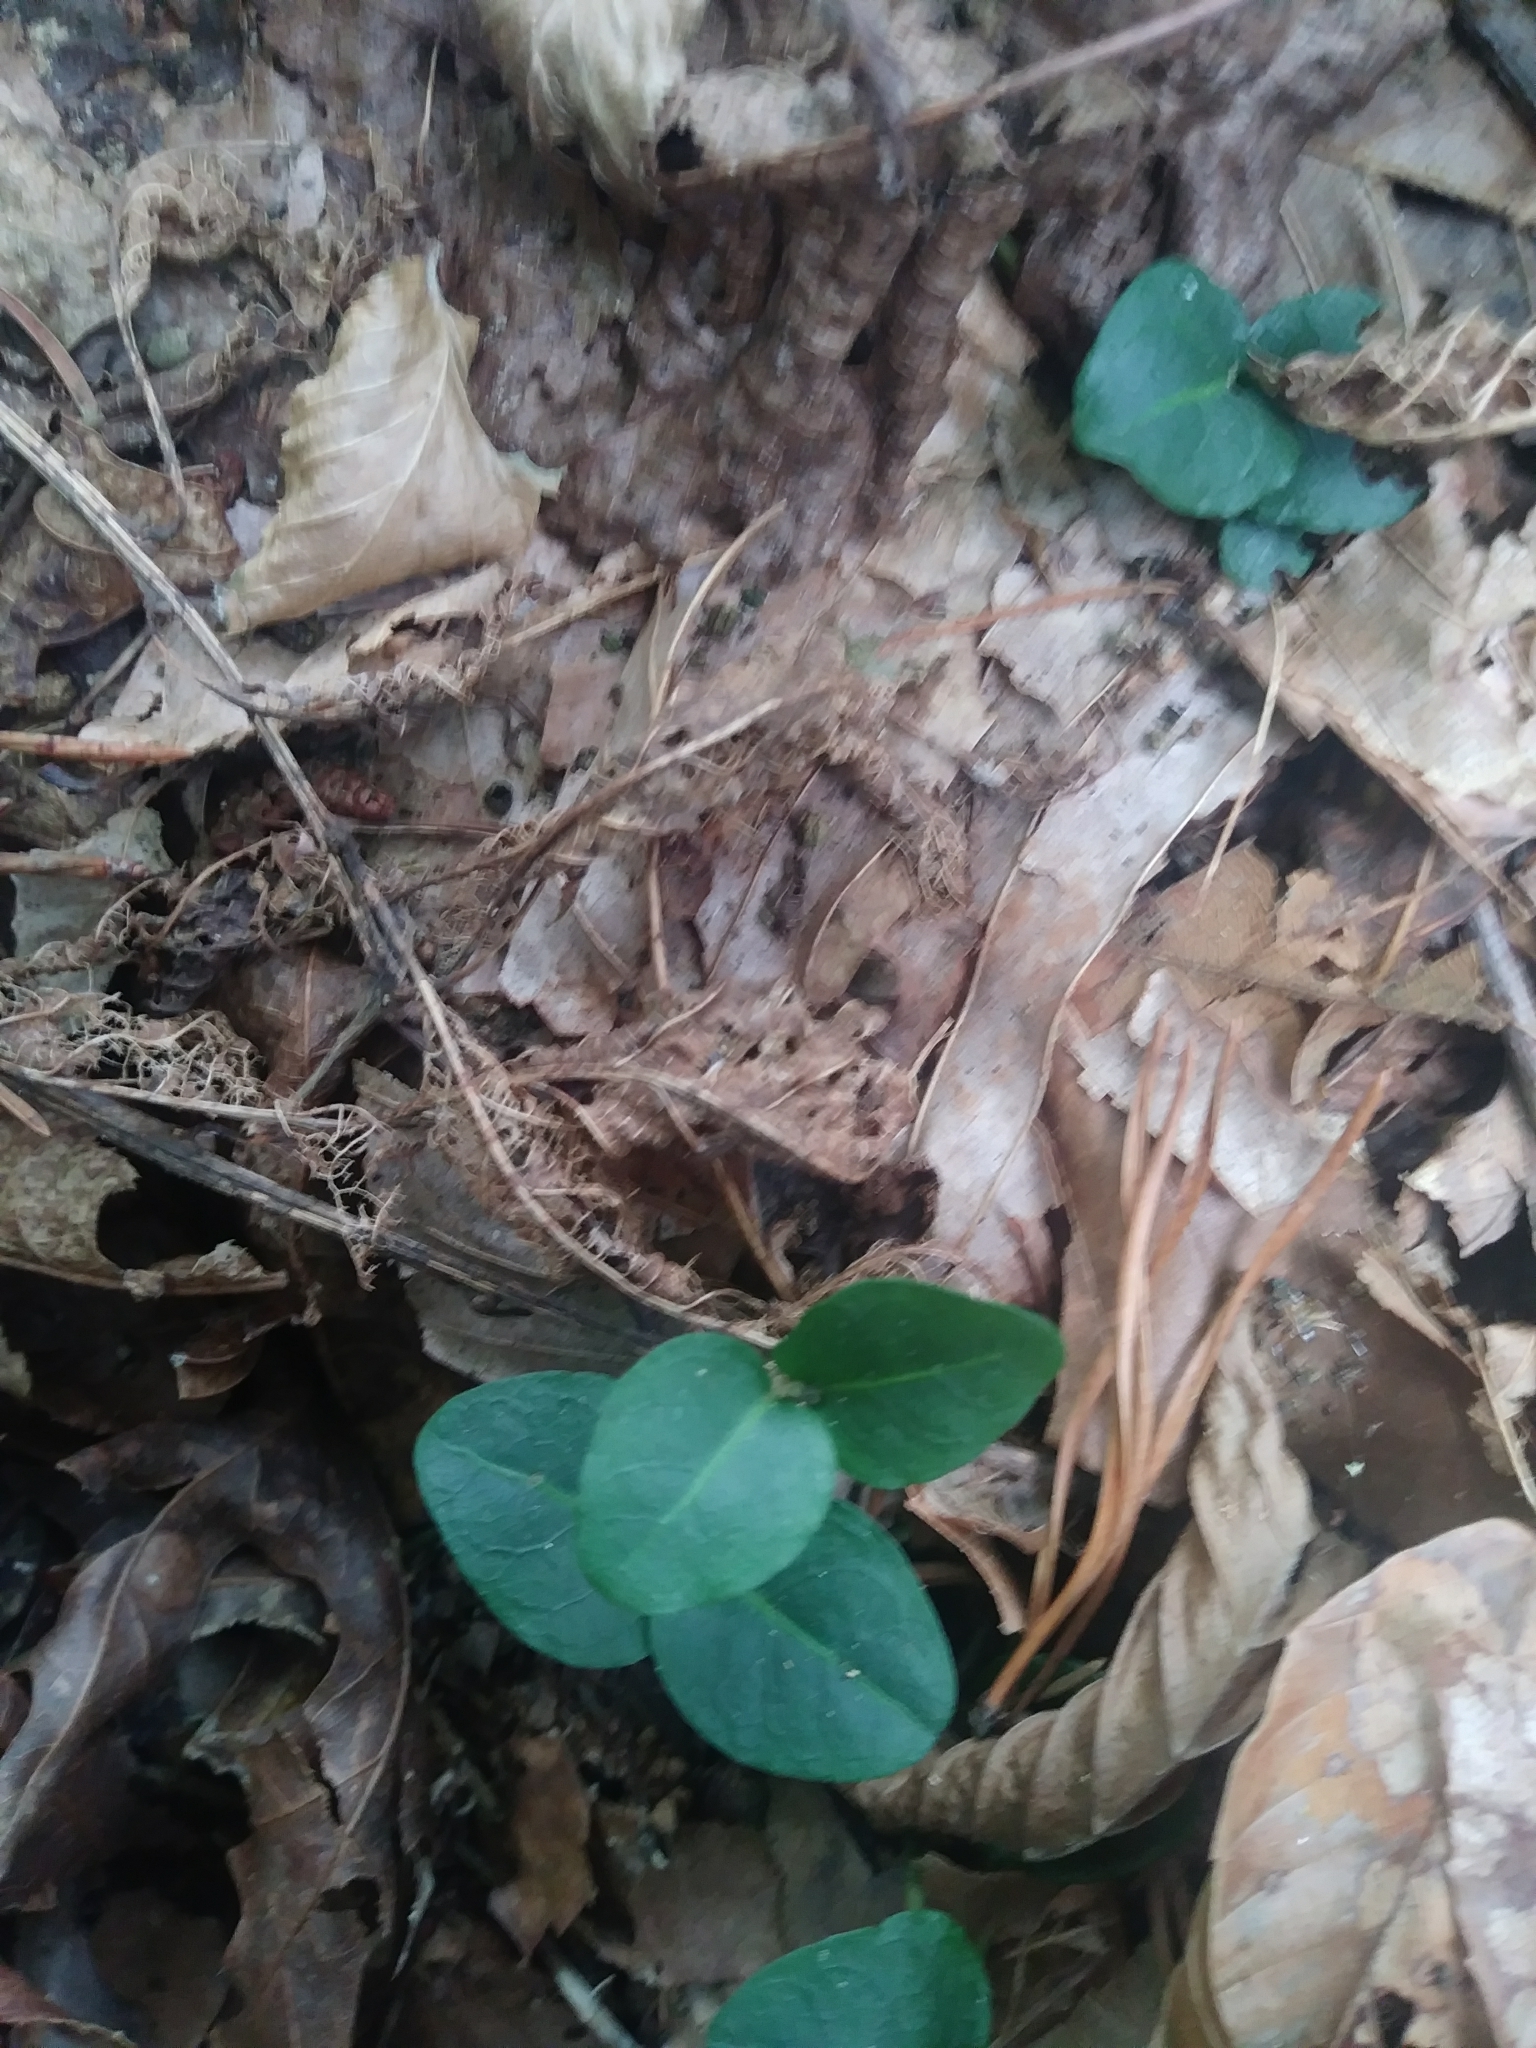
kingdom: Plantae
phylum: Tracheophyta
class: Magnoliopsida
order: Gentianales
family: Rubiaceae
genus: Mitchella
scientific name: Mitchella repens
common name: Partridge-berry
